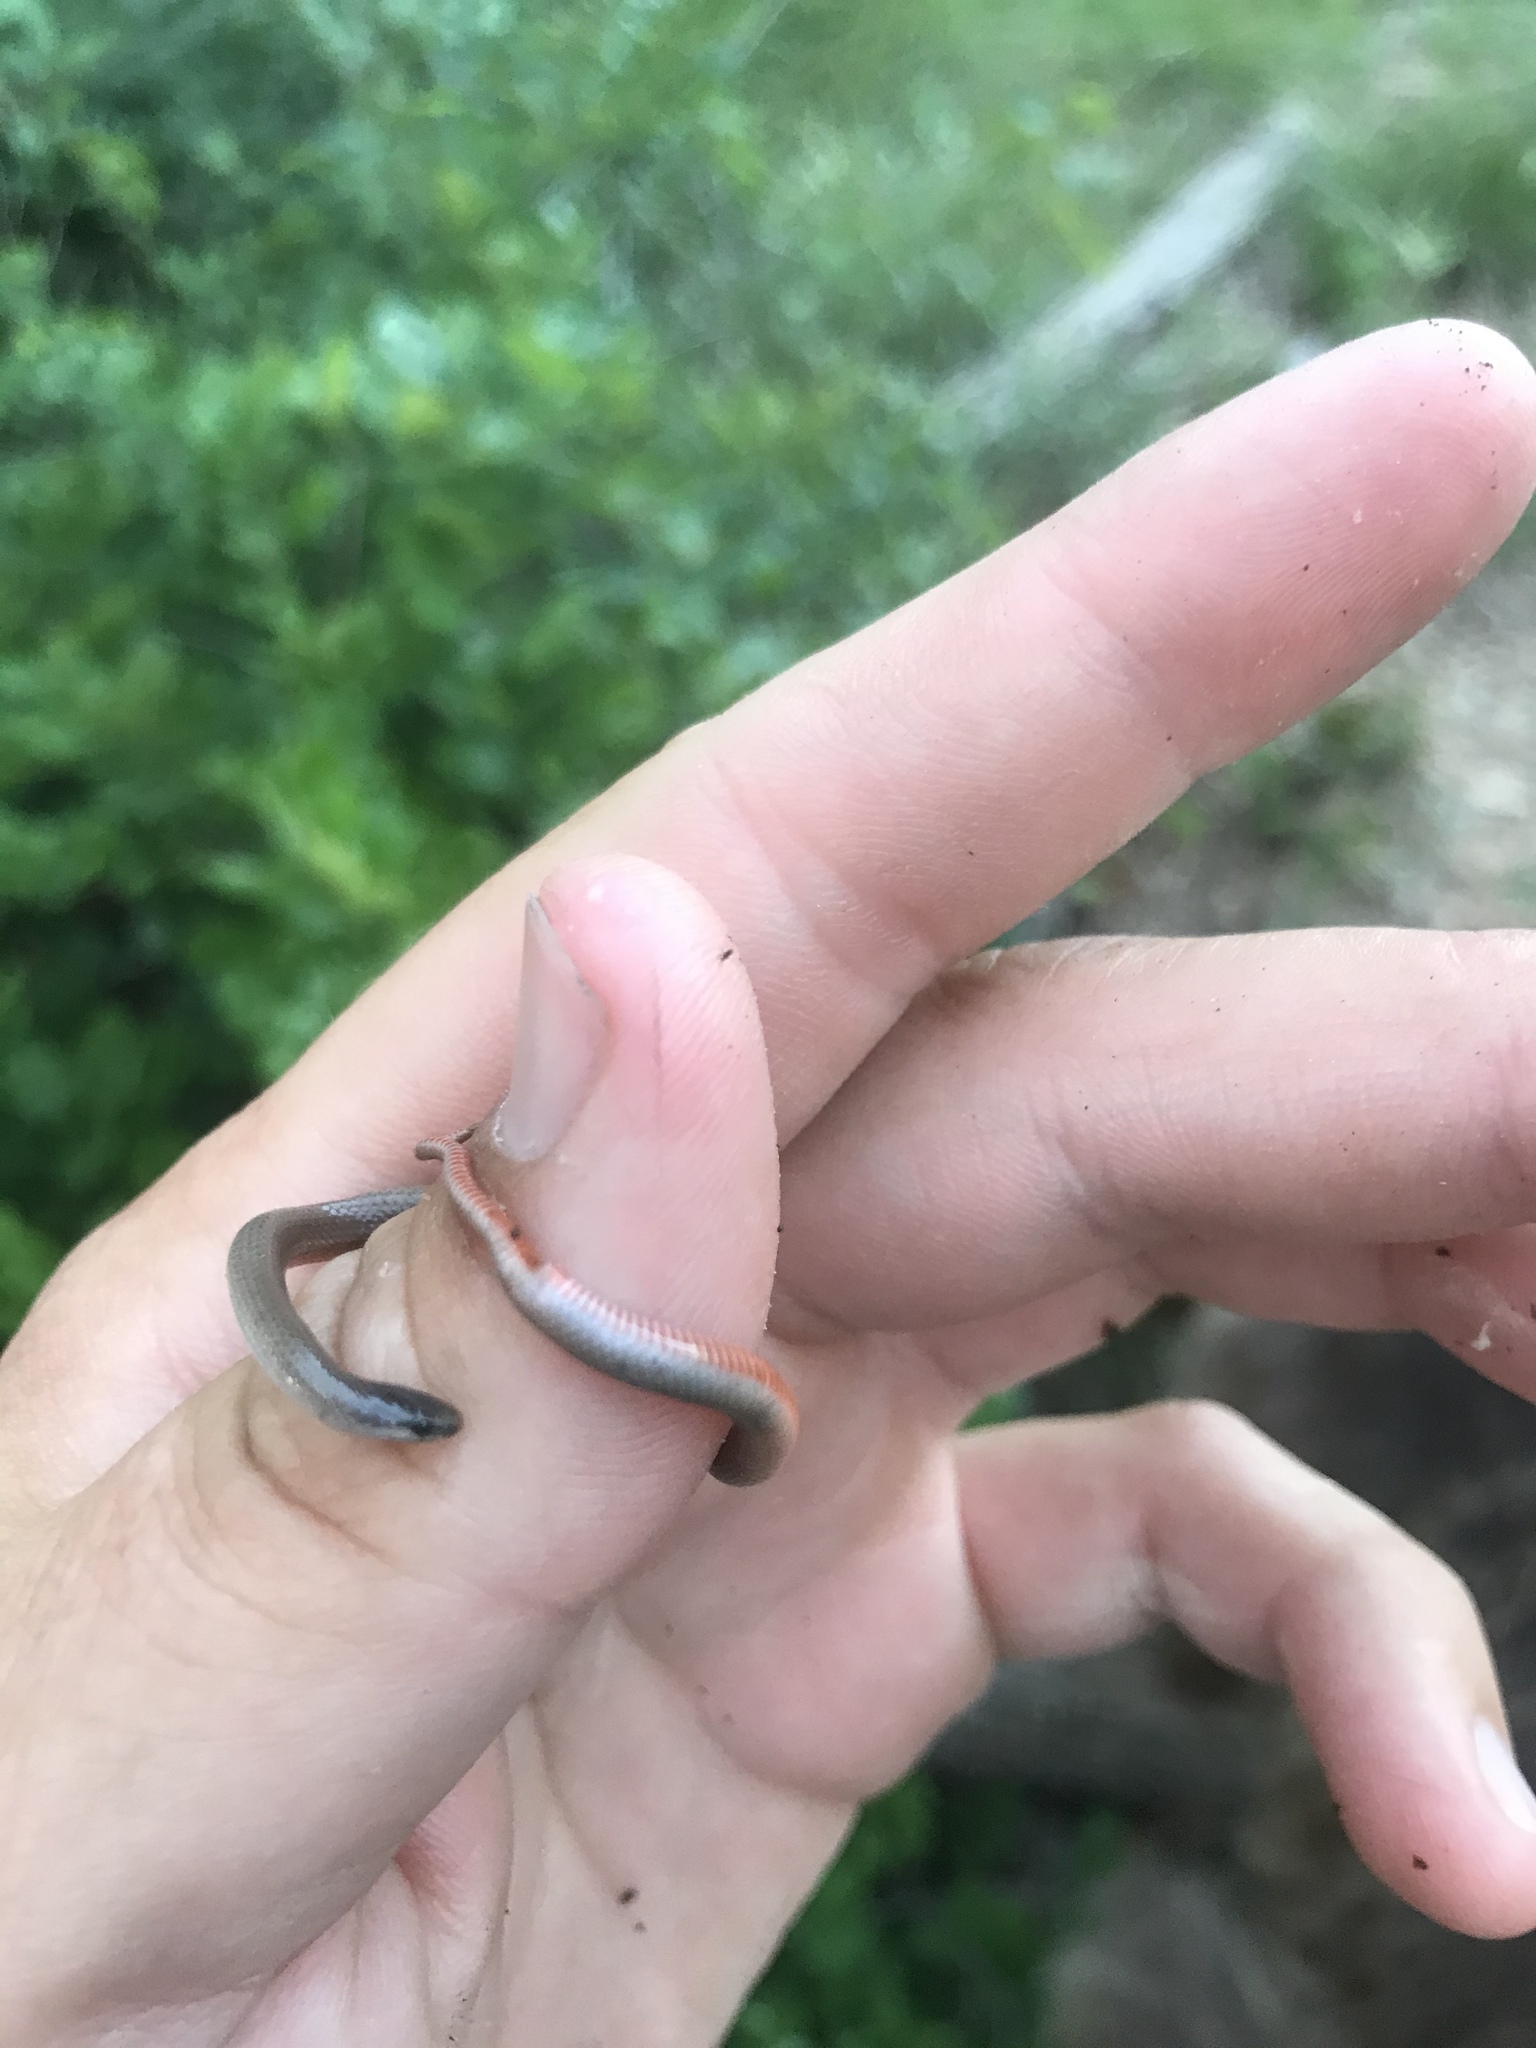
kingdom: Animalia
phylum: Chordata
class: Squamata
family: Colubridae
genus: Tantilla
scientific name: Tantilla gracilis
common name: Flathead snake
